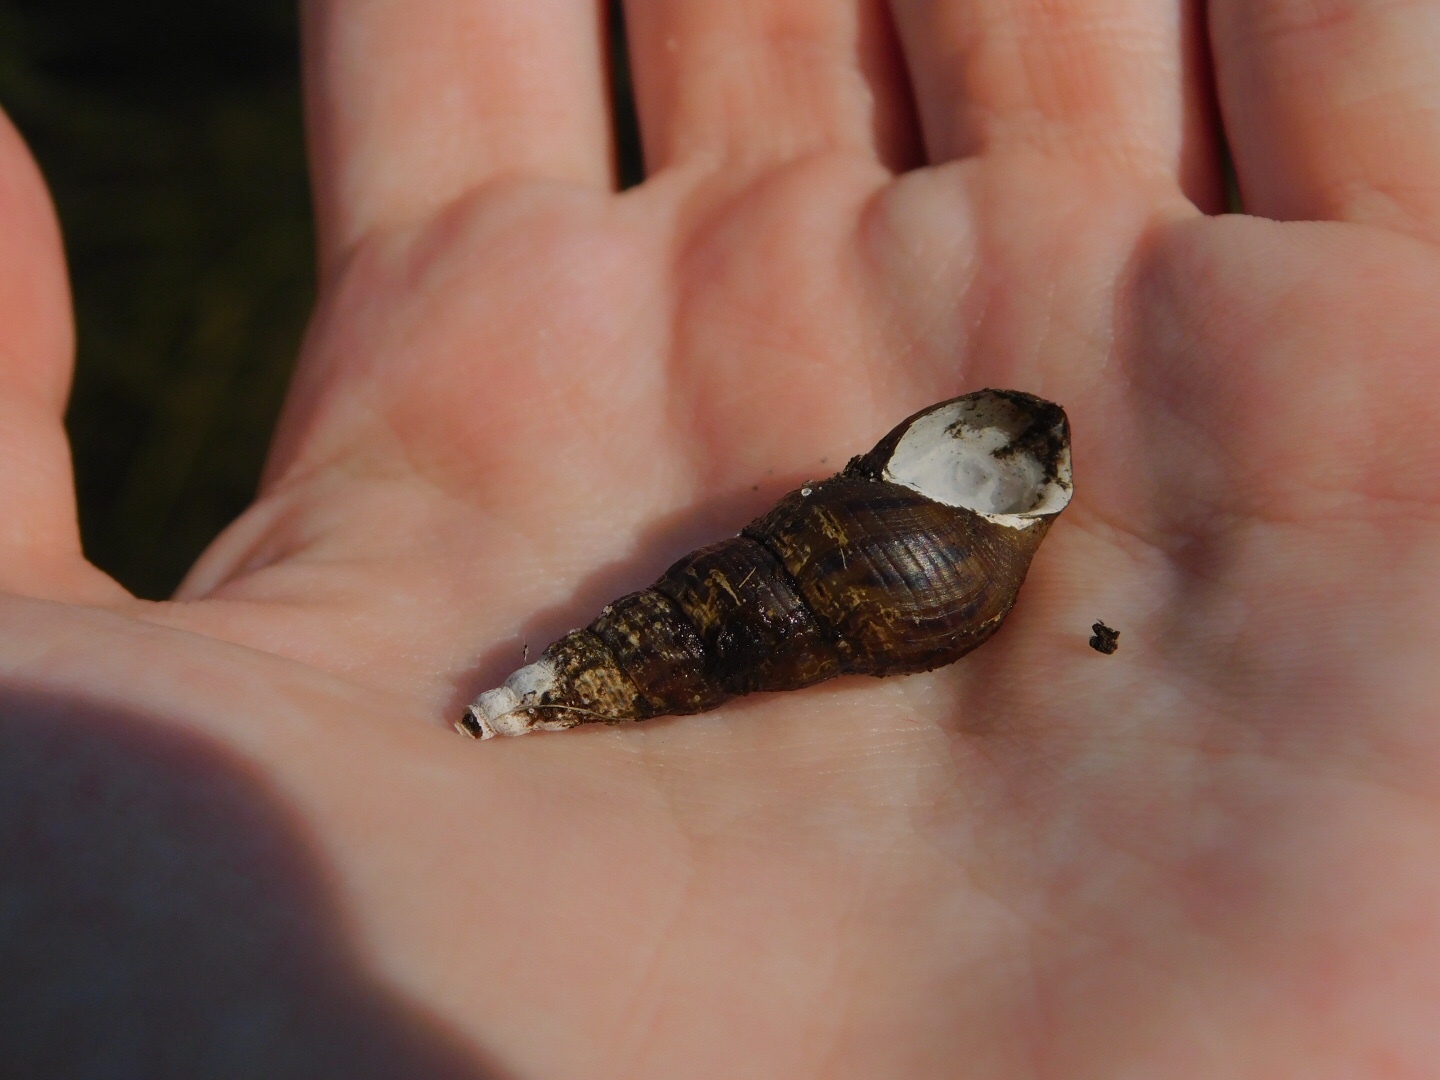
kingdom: Animalia
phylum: Mollusca
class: Gastropoda
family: Thiaridae
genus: Melanoides
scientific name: Melanoides tuberculata
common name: Red-rim melania
